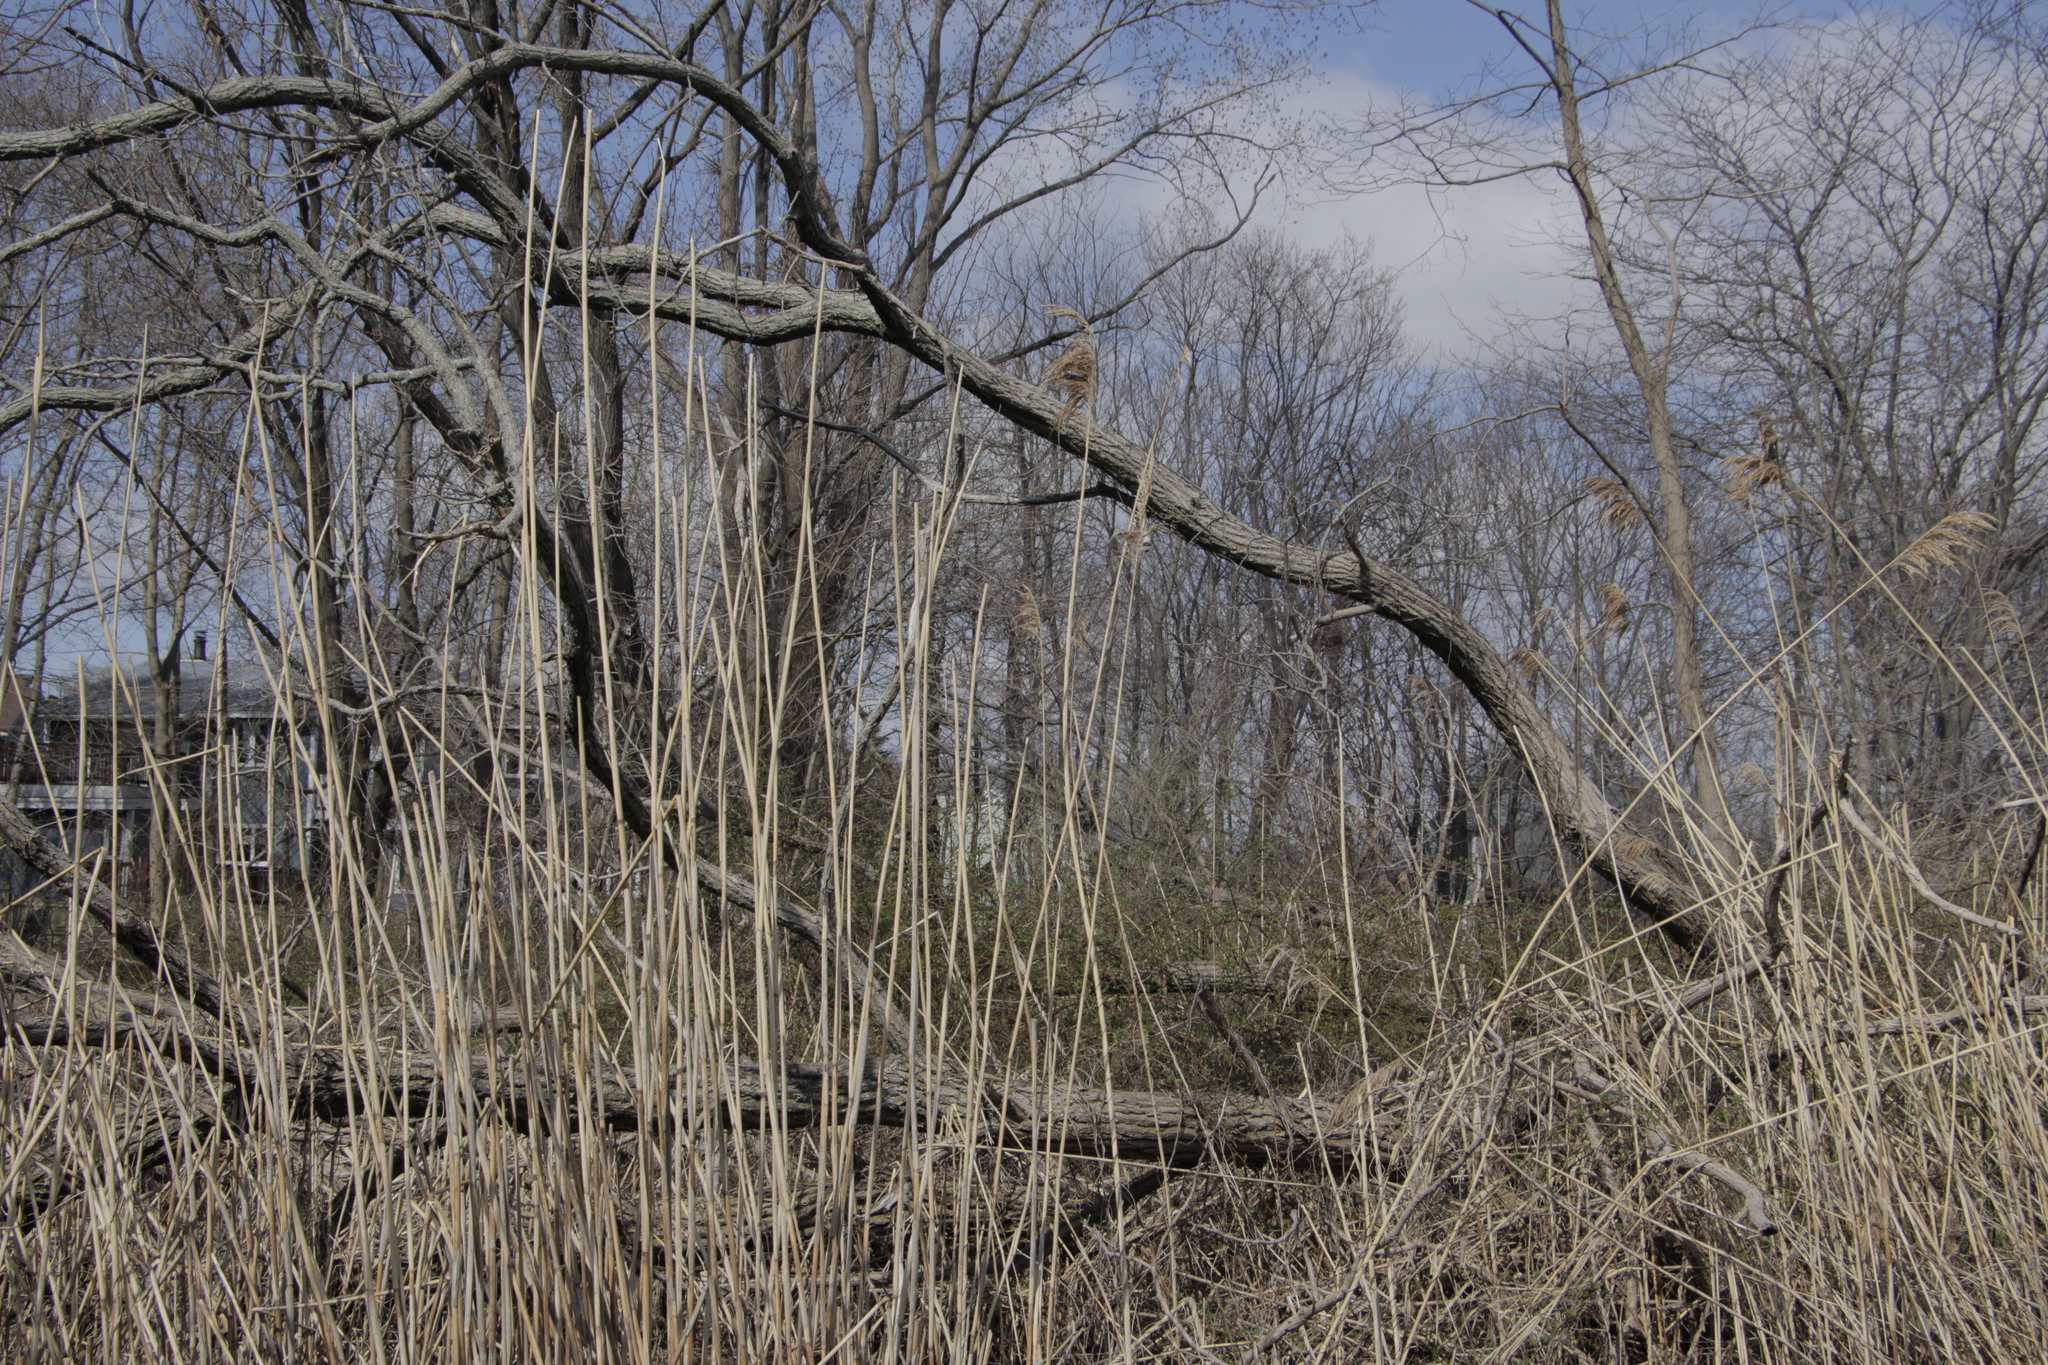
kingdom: Plantae
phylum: Tracheophyta
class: Liliopsida
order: Poales
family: Poaceae
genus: Phragmites
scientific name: Phragmites australis
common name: Common reed
